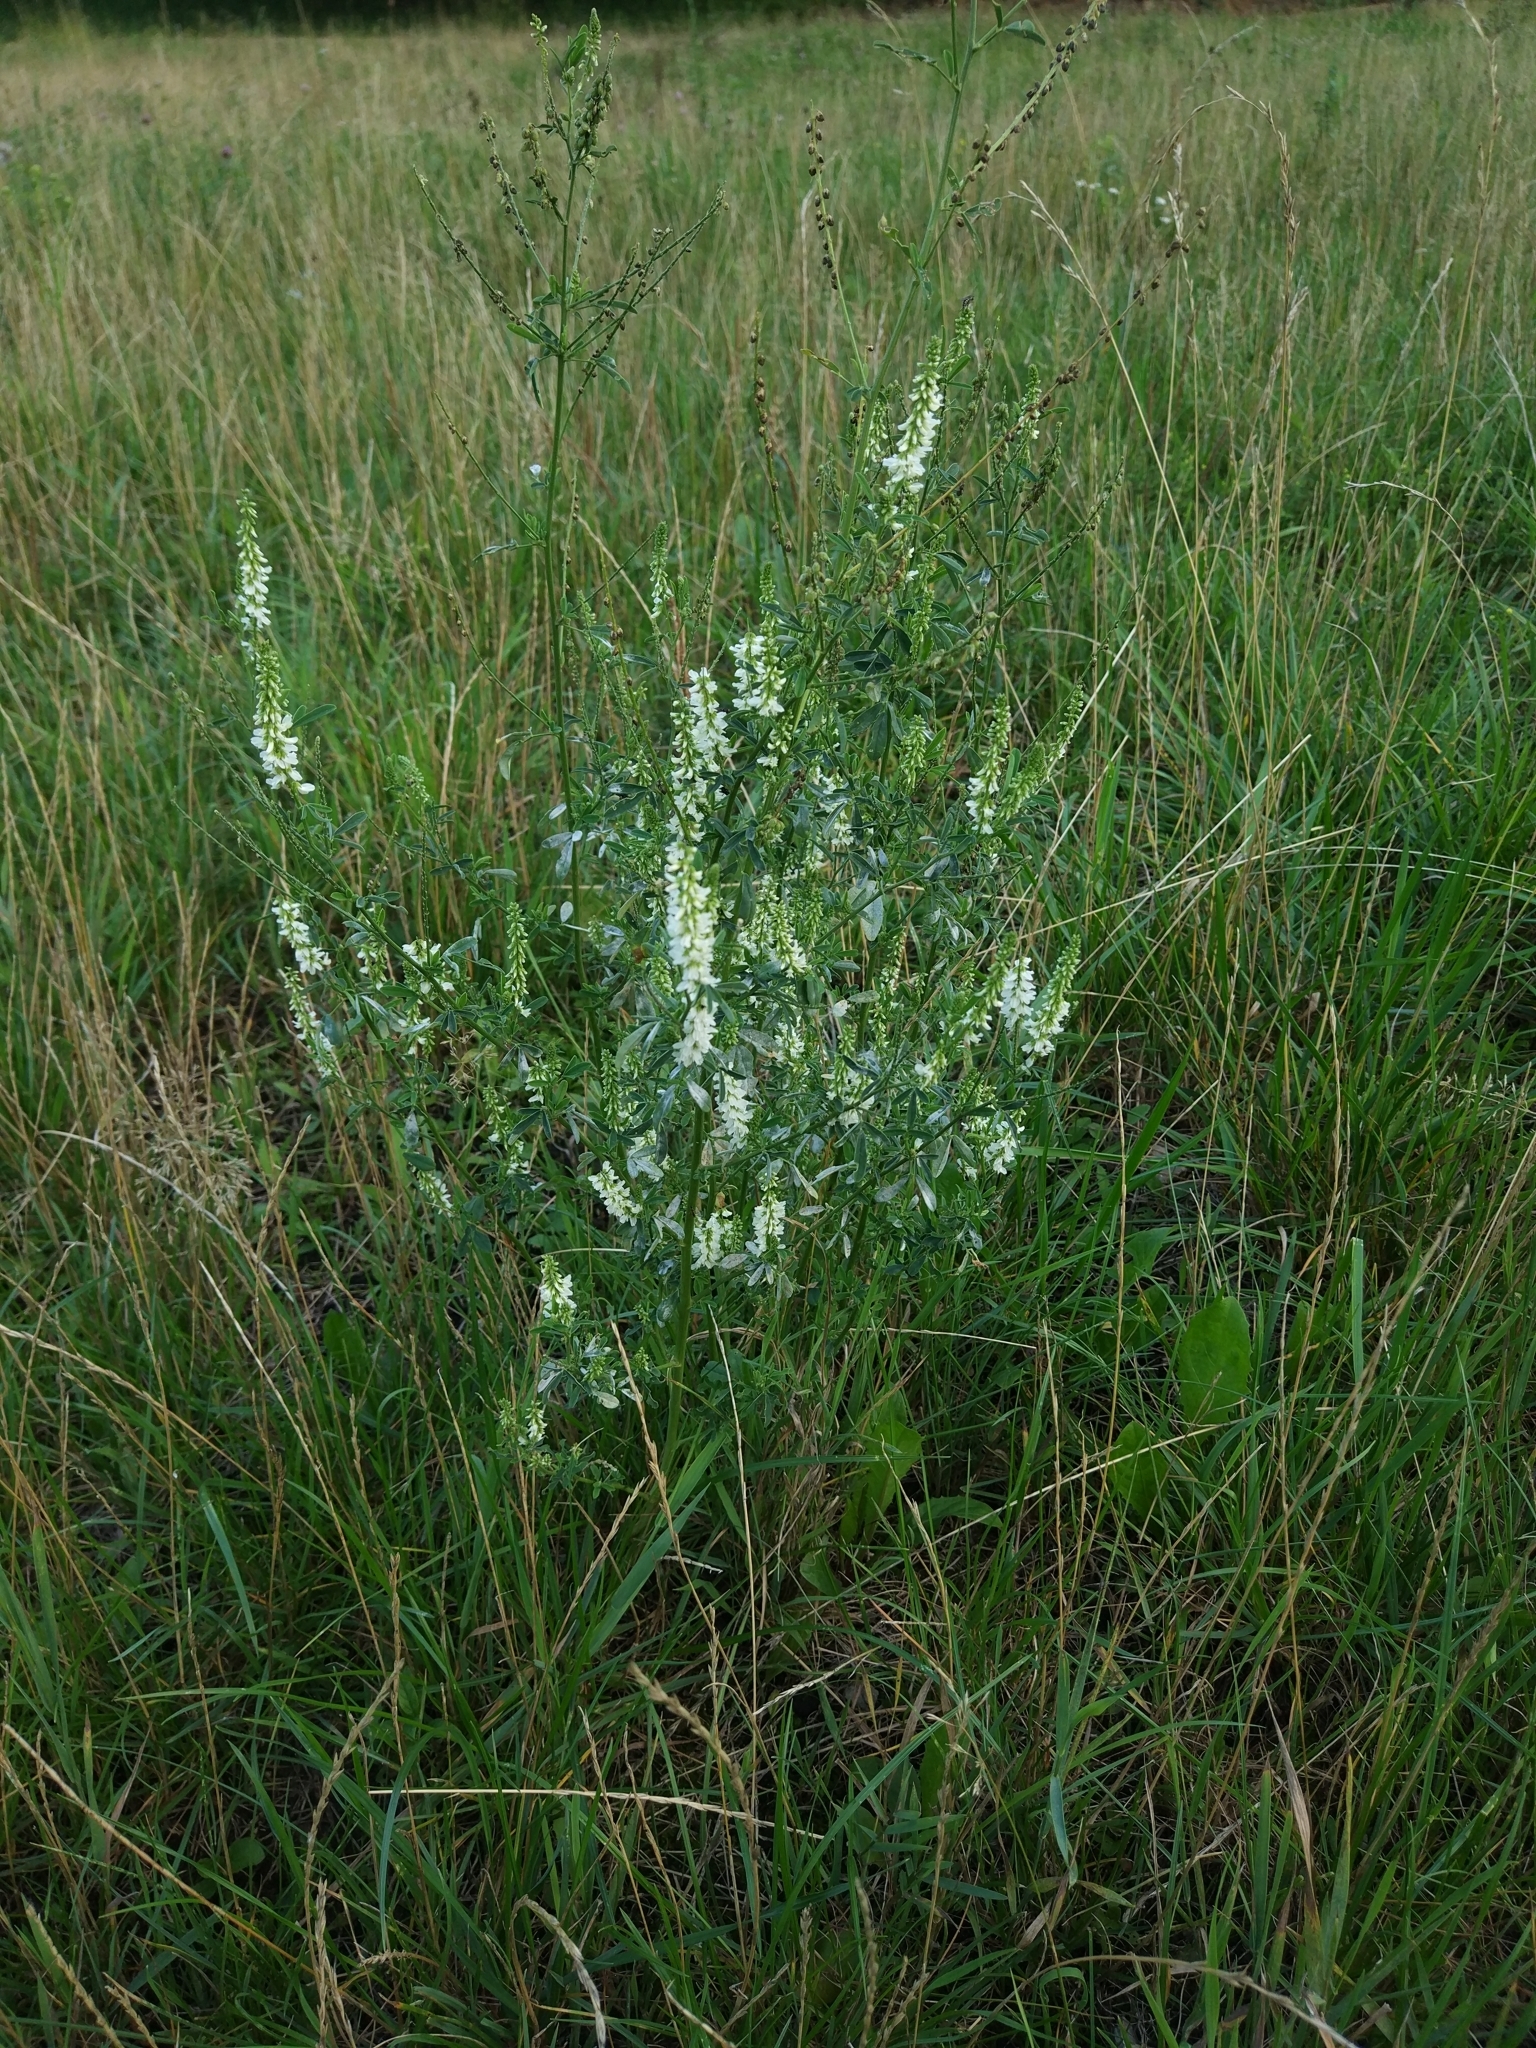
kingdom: Plantae
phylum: Tracheophyta
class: Magnoliopsida
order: Fabales
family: Fabaceae
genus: Melilotus
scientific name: Melilotus albus
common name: White melilot
